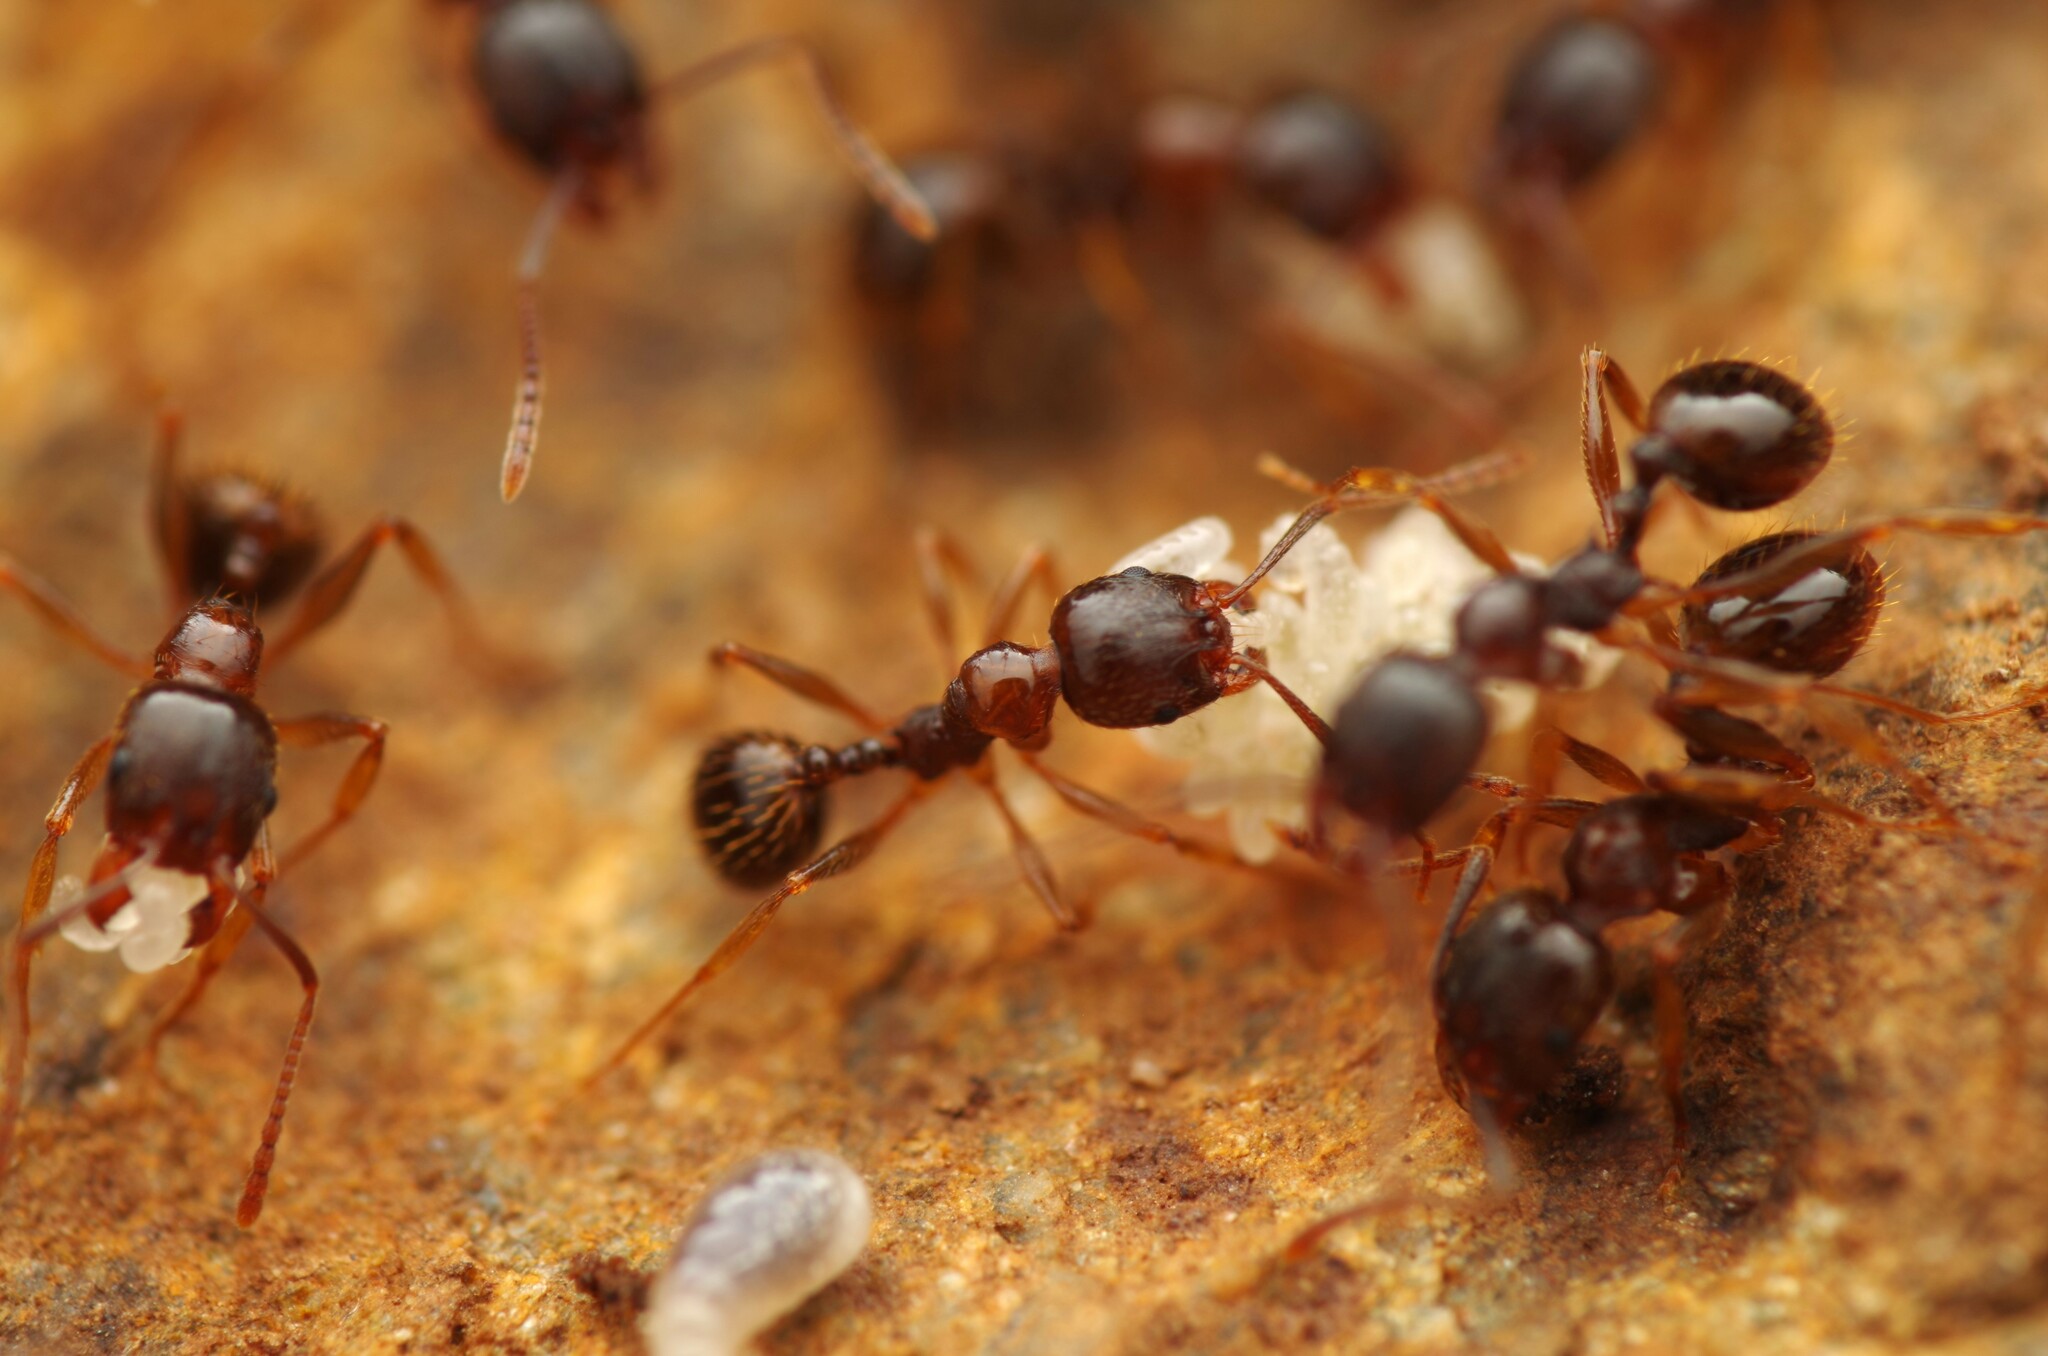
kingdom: Animalia
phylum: Arthropoda
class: Insecta
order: Hymenoptera
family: Formicidae
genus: Aphaenogaster
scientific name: Aphaenogaster subterranea
